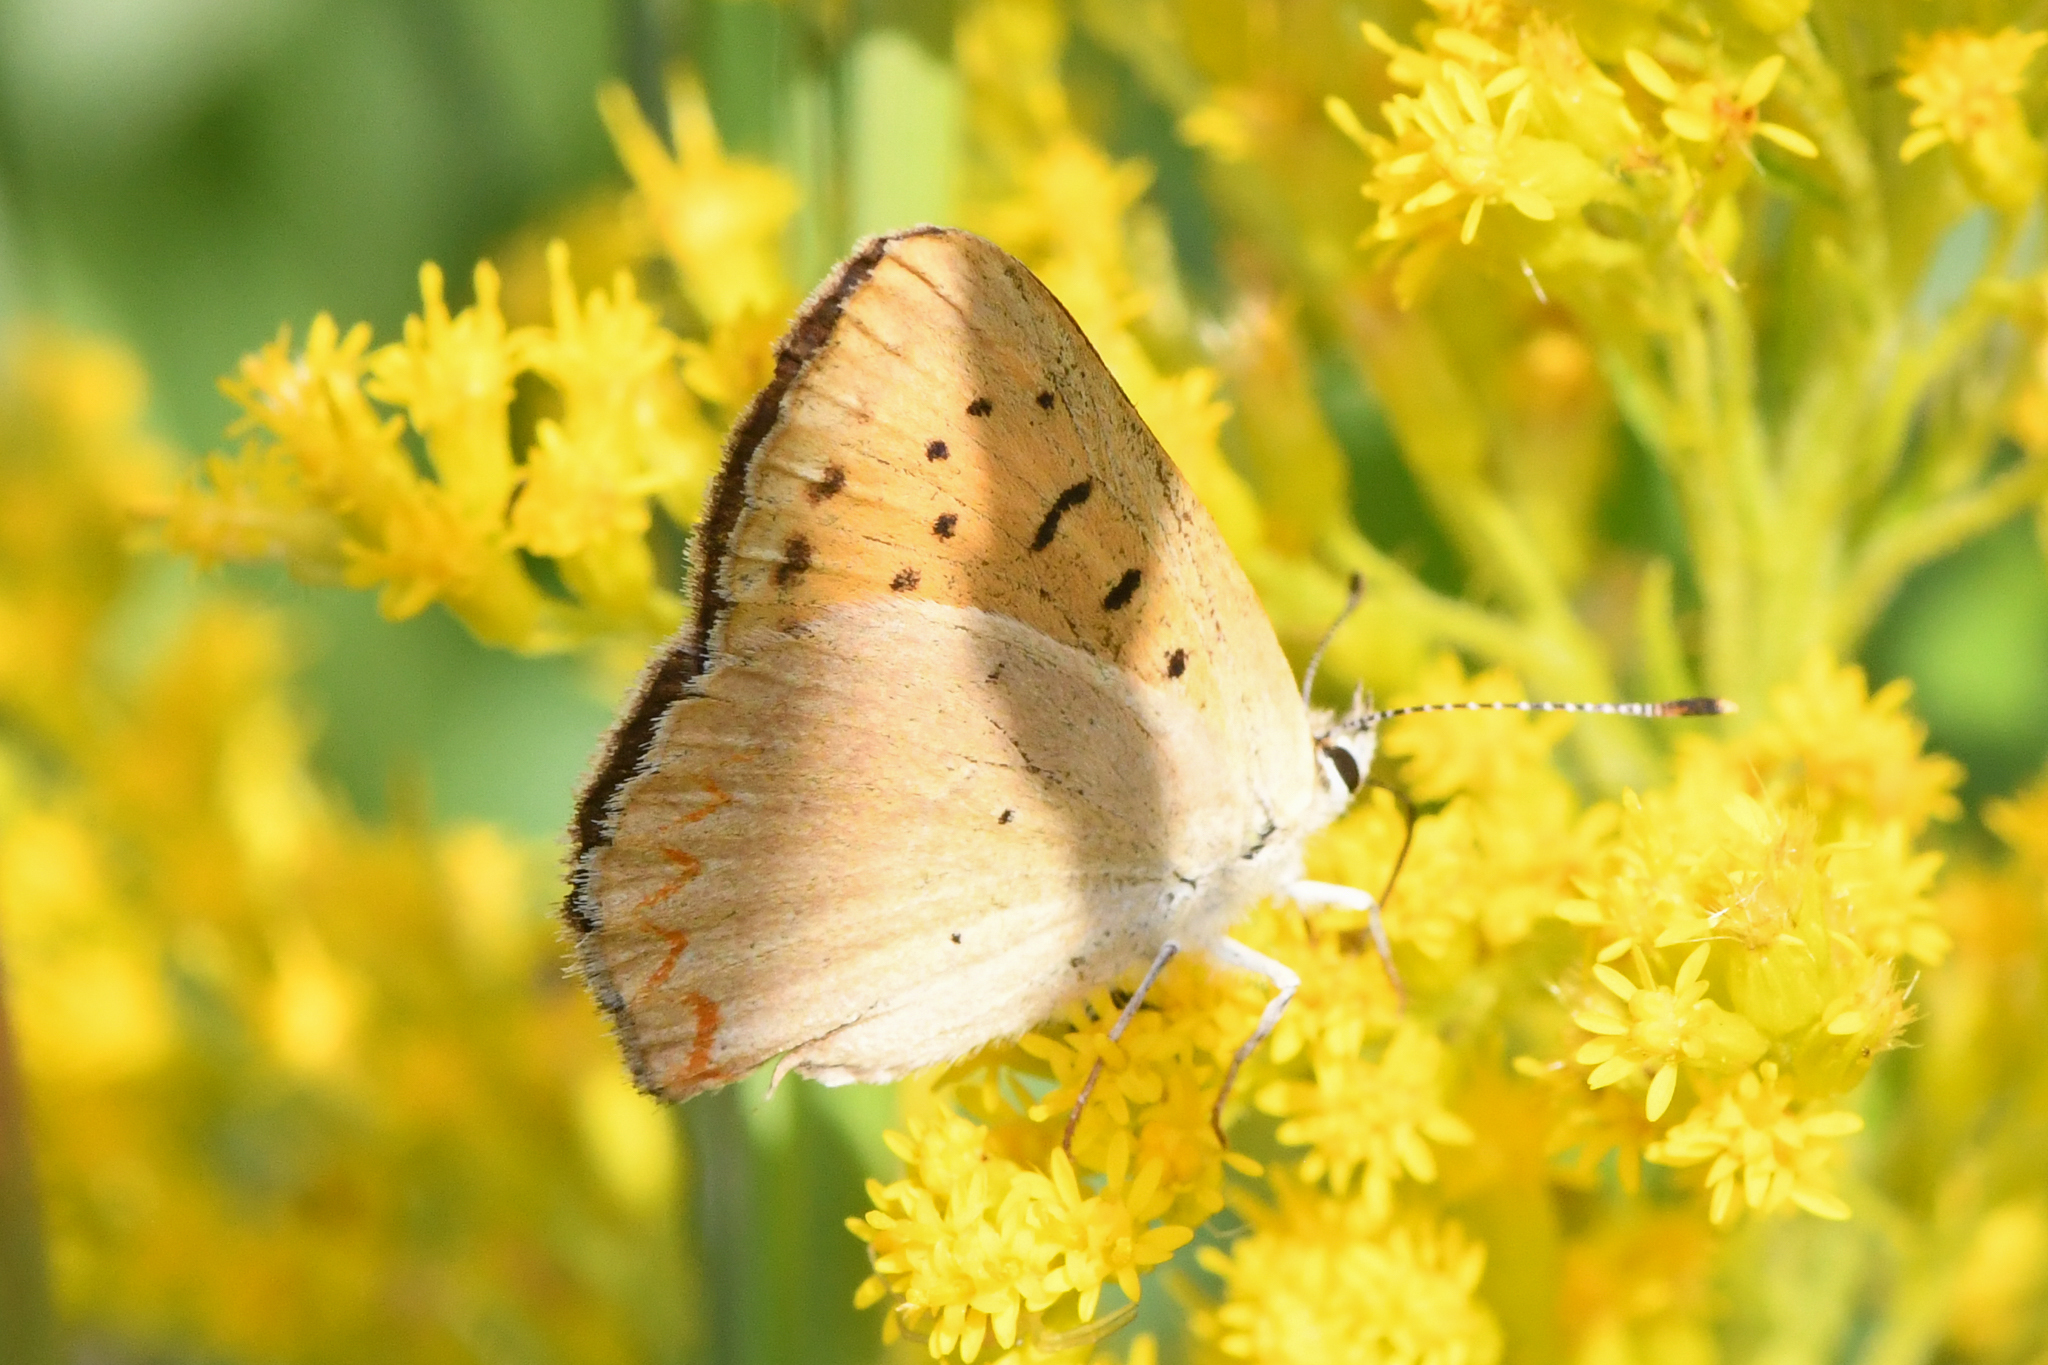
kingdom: Animalia
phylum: Arthropoda
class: Insecta
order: Lepidoptera
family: Lycaenidae
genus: Tharsalea
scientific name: Tharsalea helloides
